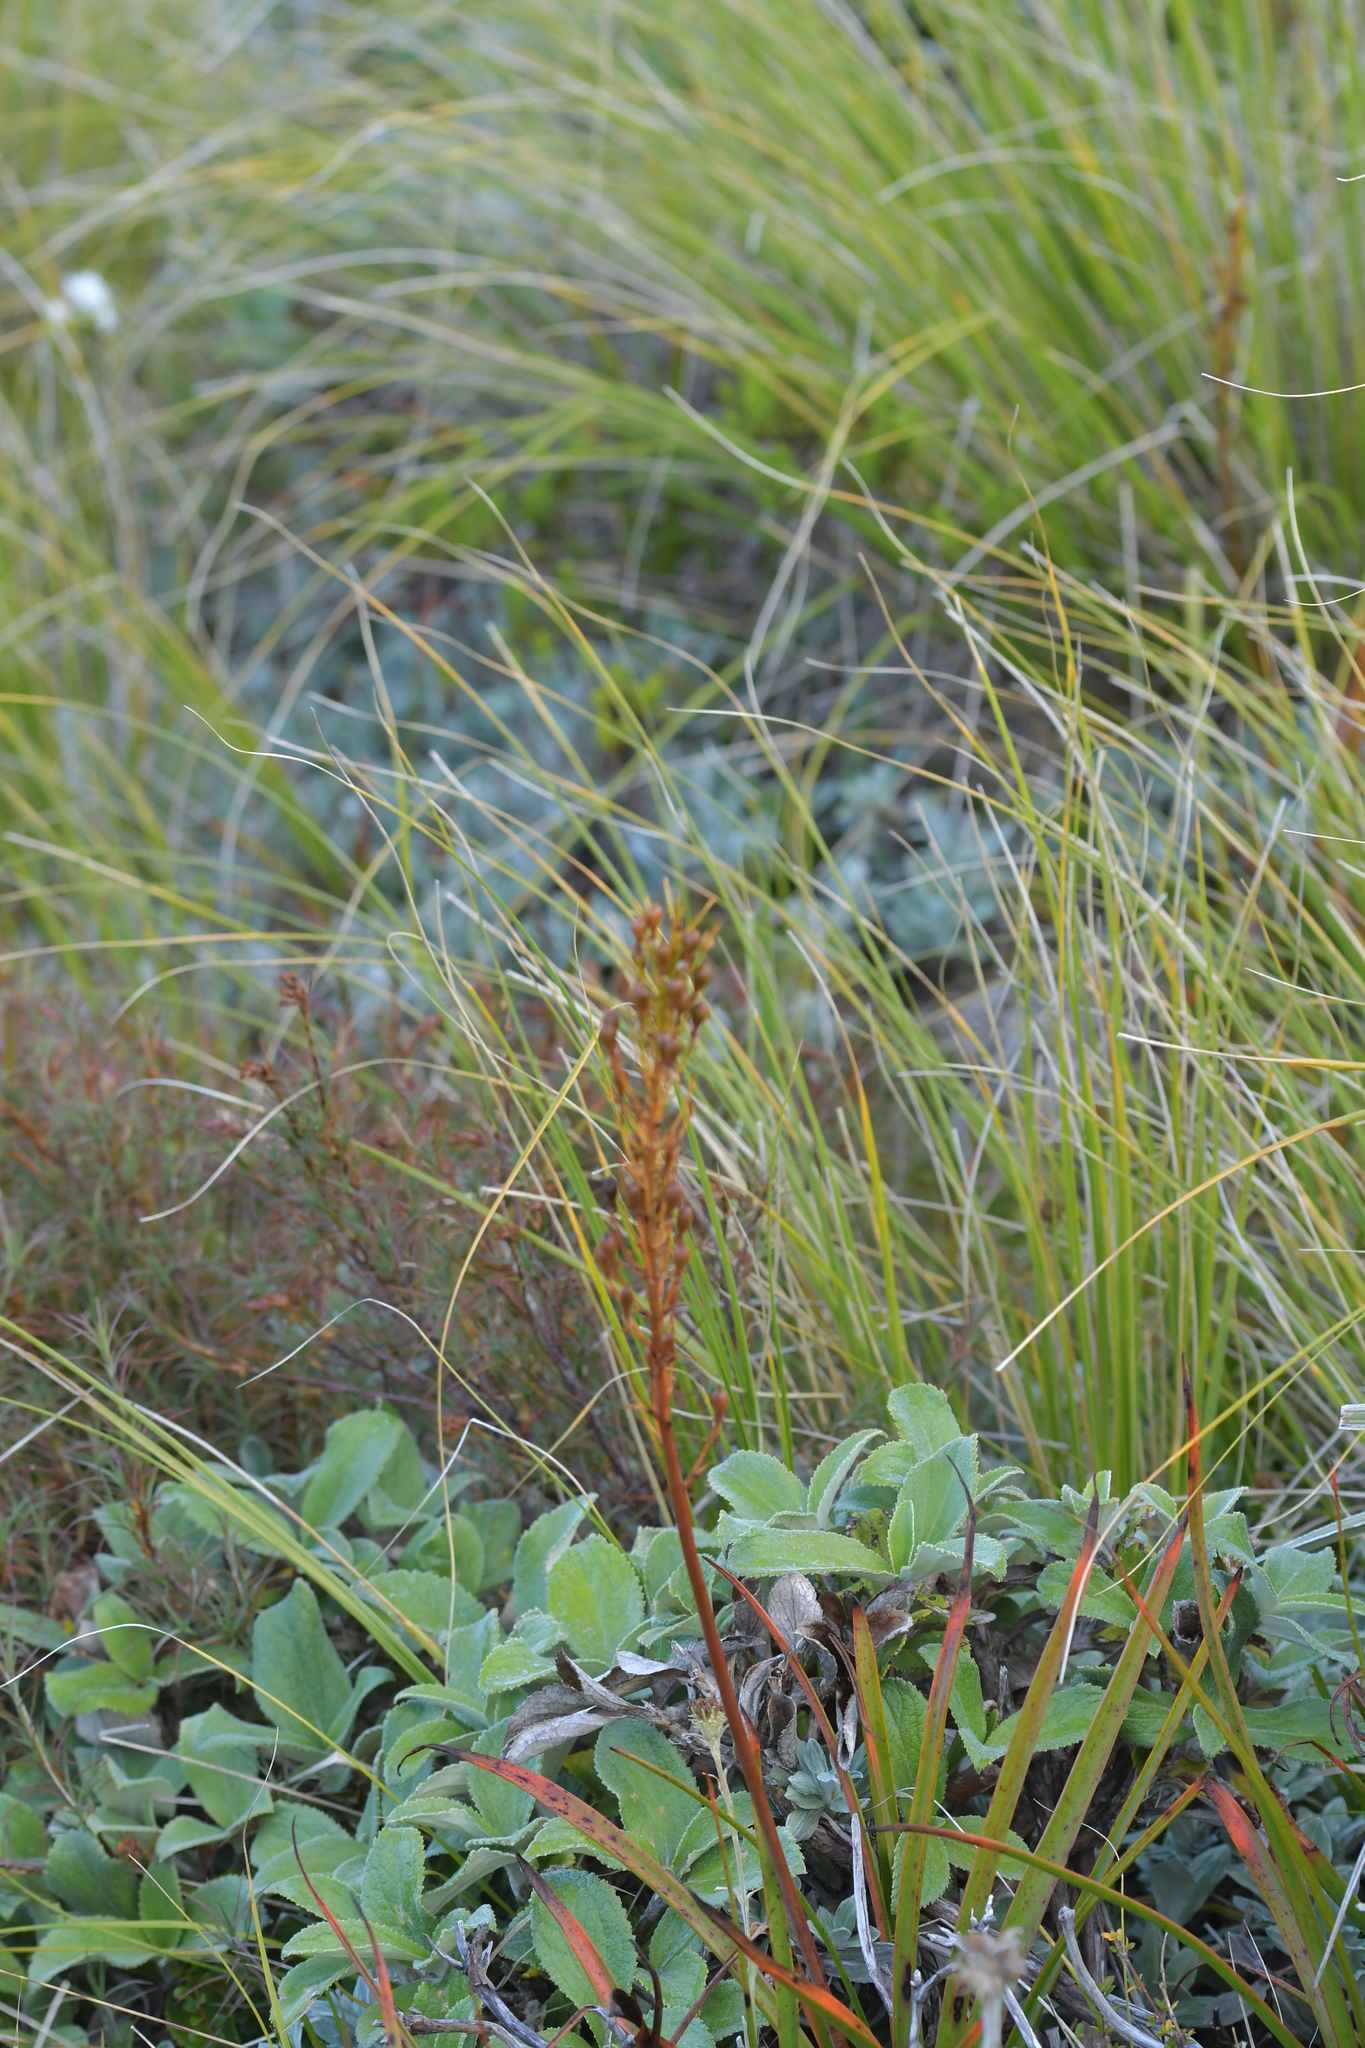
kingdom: Plantae
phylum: Tracheophyta
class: Liliopsida
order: Asparagales
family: Asphodelaceae
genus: Bulbinella
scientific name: Bulbinella hookeri
